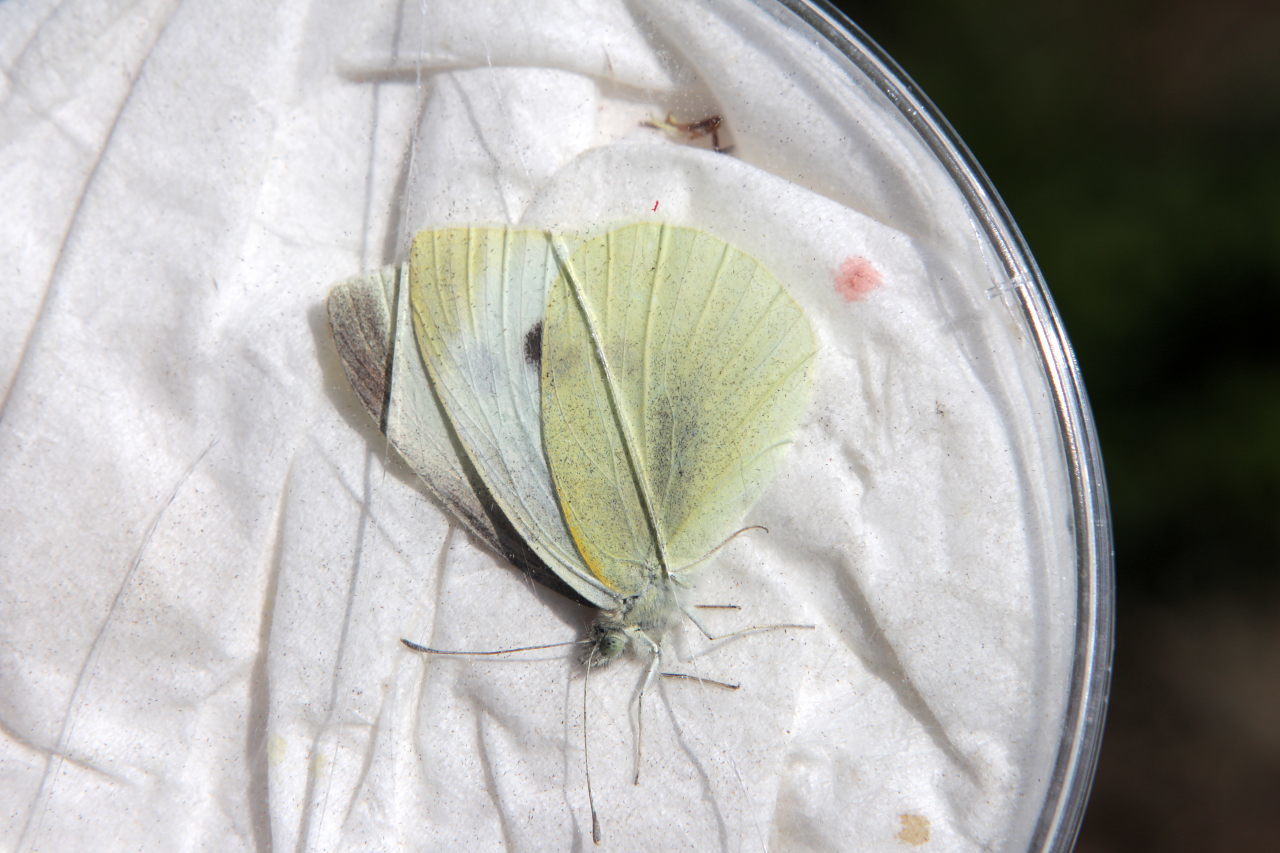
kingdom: Animalia
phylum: Arthropoda
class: Insecta
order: Lepidoptera
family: Pieridae
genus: Pieris
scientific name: Pieris rapae
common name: Small white
